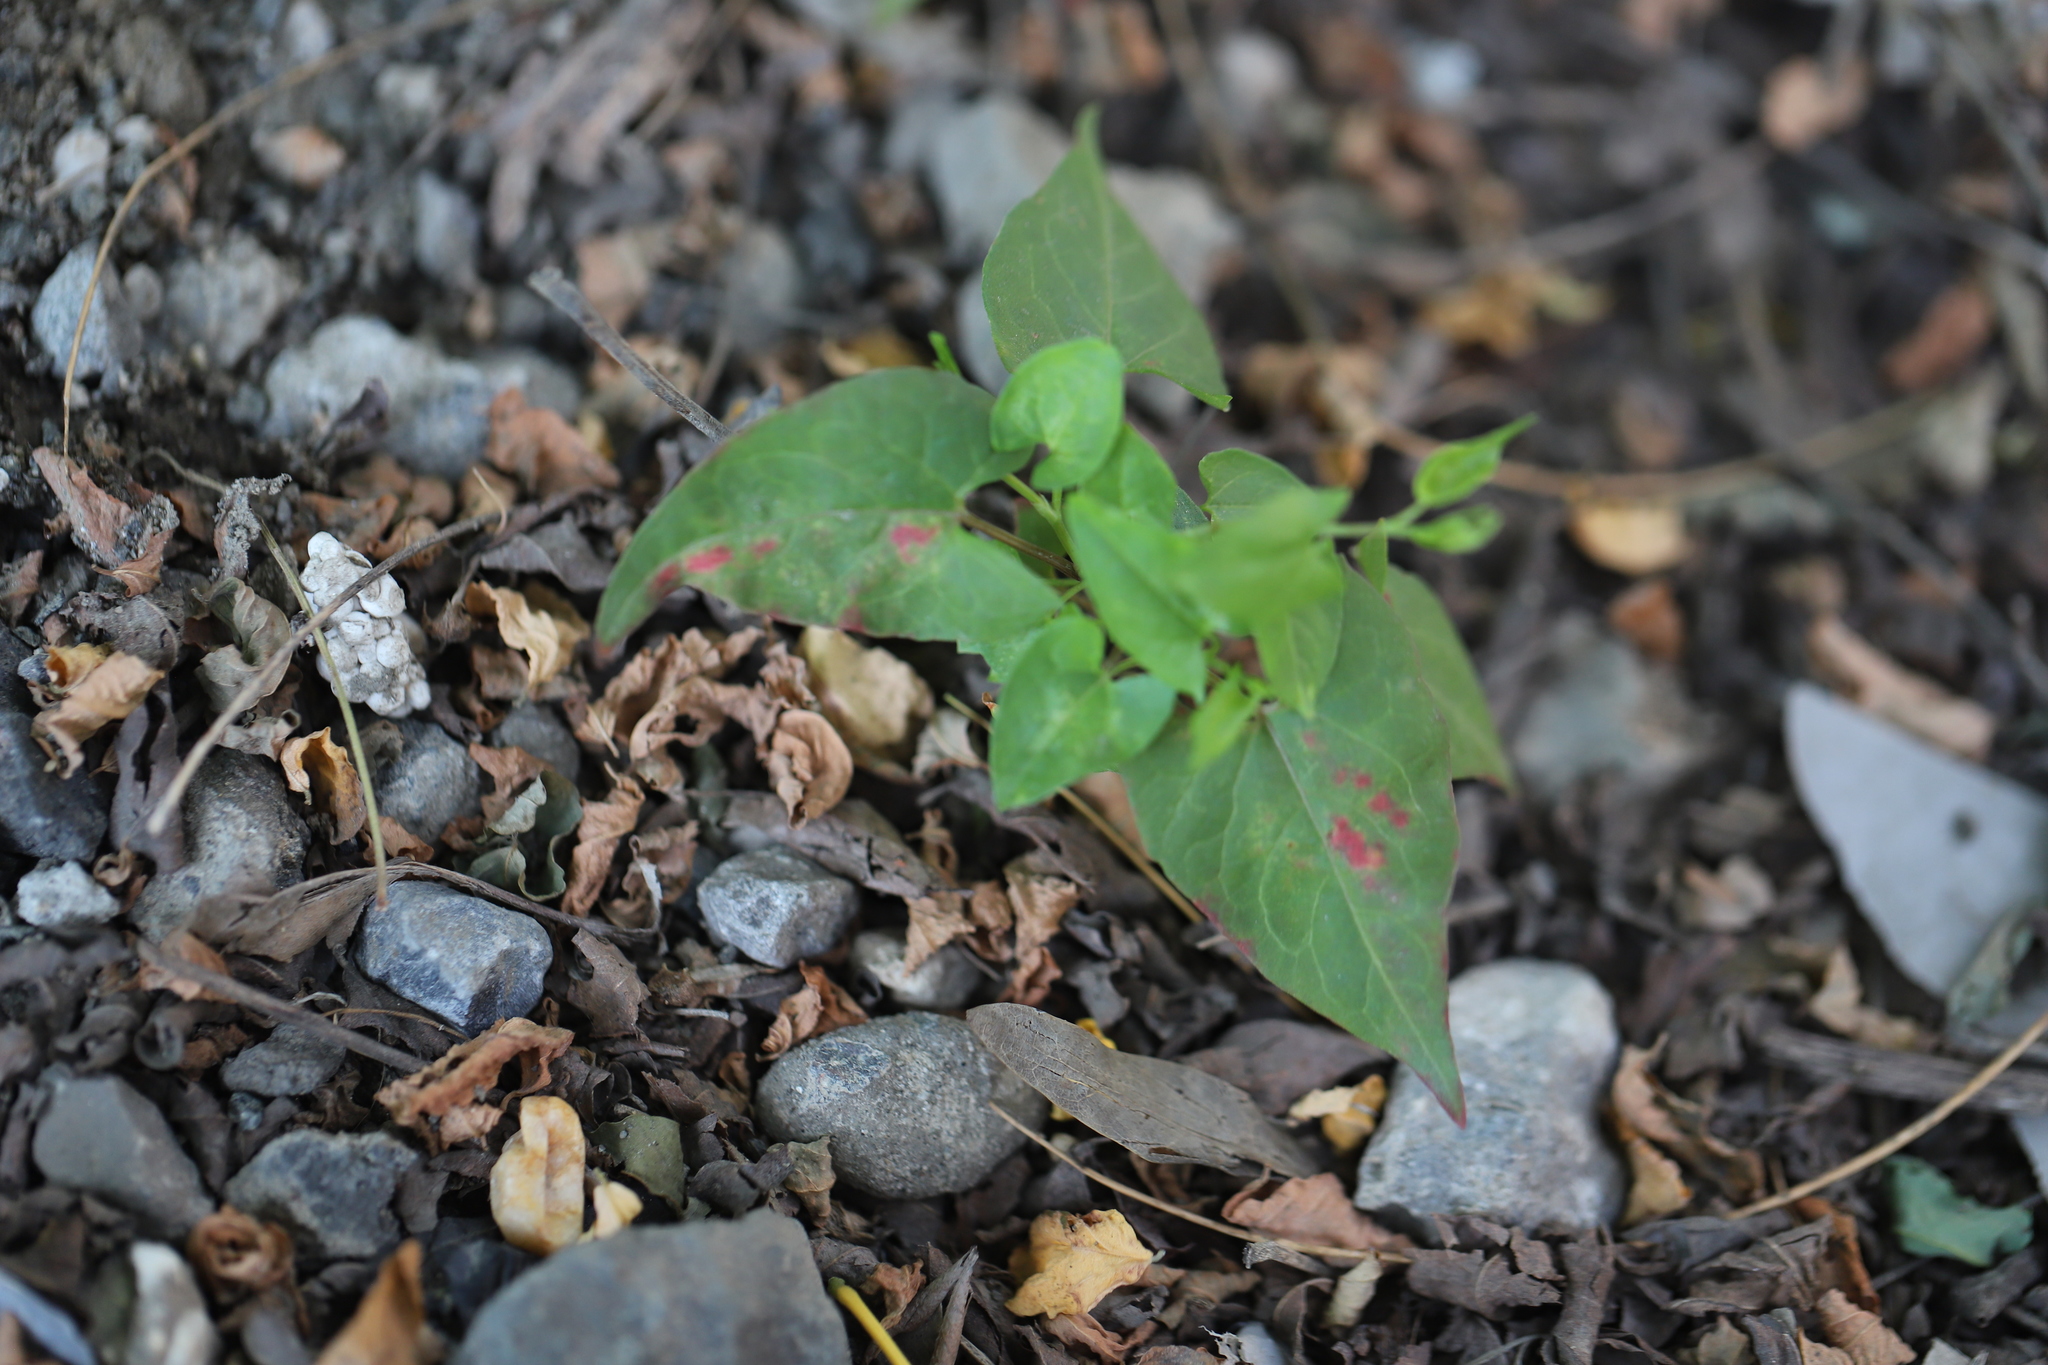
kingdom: Plantae
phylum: Tracheophyta
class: Magnoliopsida
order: Caryophyllales
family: Polygonaceae
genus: Fallopia
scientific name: Fallopia convolvulus
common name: Black bindweed
